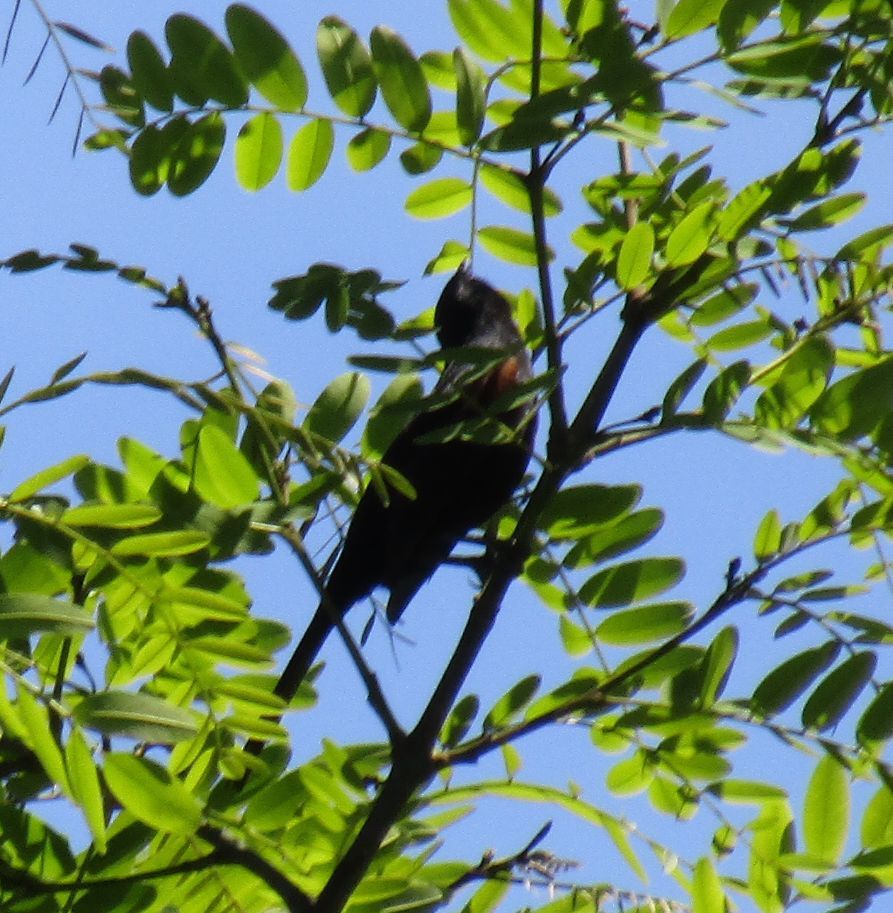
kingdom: Animalia
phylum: Chordata
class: Aves
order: Passeriformes
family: Icteridae
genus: Icterus
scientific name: Icterus cayanensis
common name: Epaulet oriole
